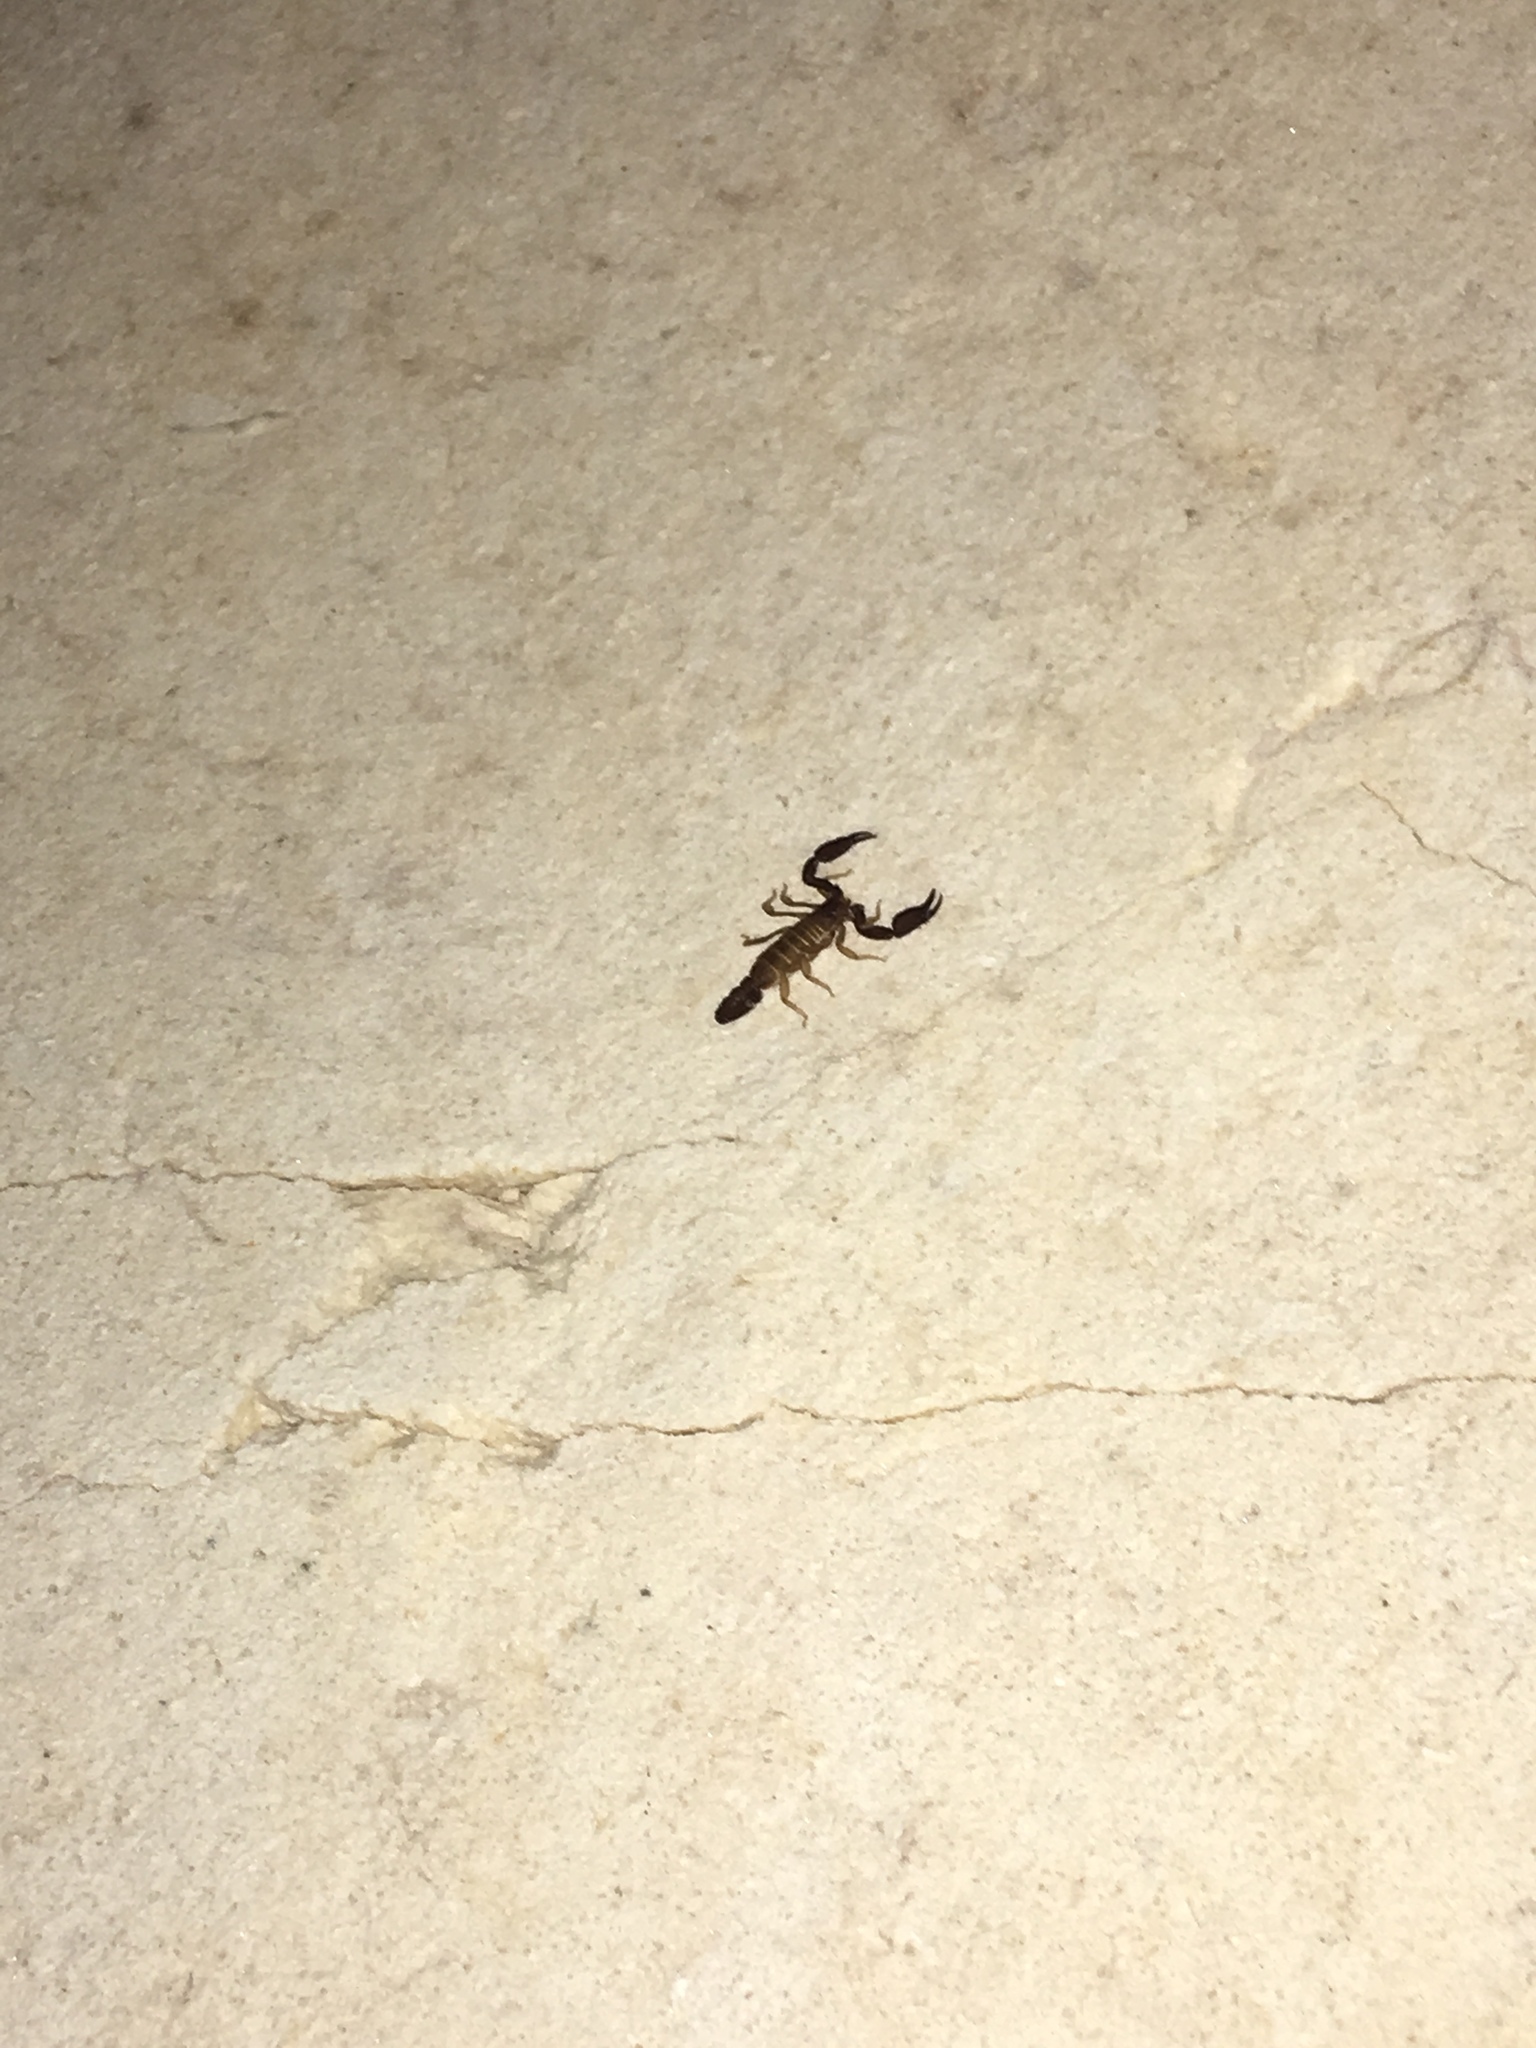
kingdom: Animalia
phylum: Arthropoda
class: Arachnida
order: Scorpiones
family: Vaejovidae
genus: Pseudouroctonus
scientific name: Pseudouroctonus reddelli
